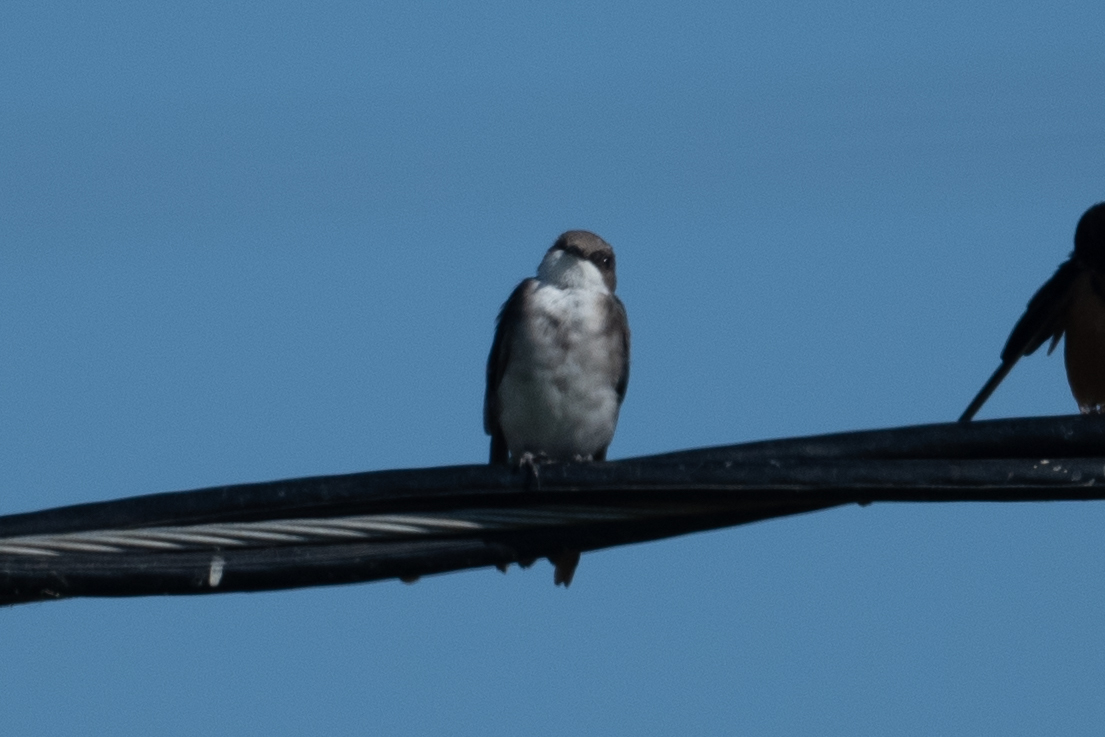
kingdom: Animalia
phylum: Chordata
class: Aves
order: Passeriformes
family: Hirundinidae
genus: Tachycineta
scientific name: Tachycineta bicolor
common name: Tree swallow
